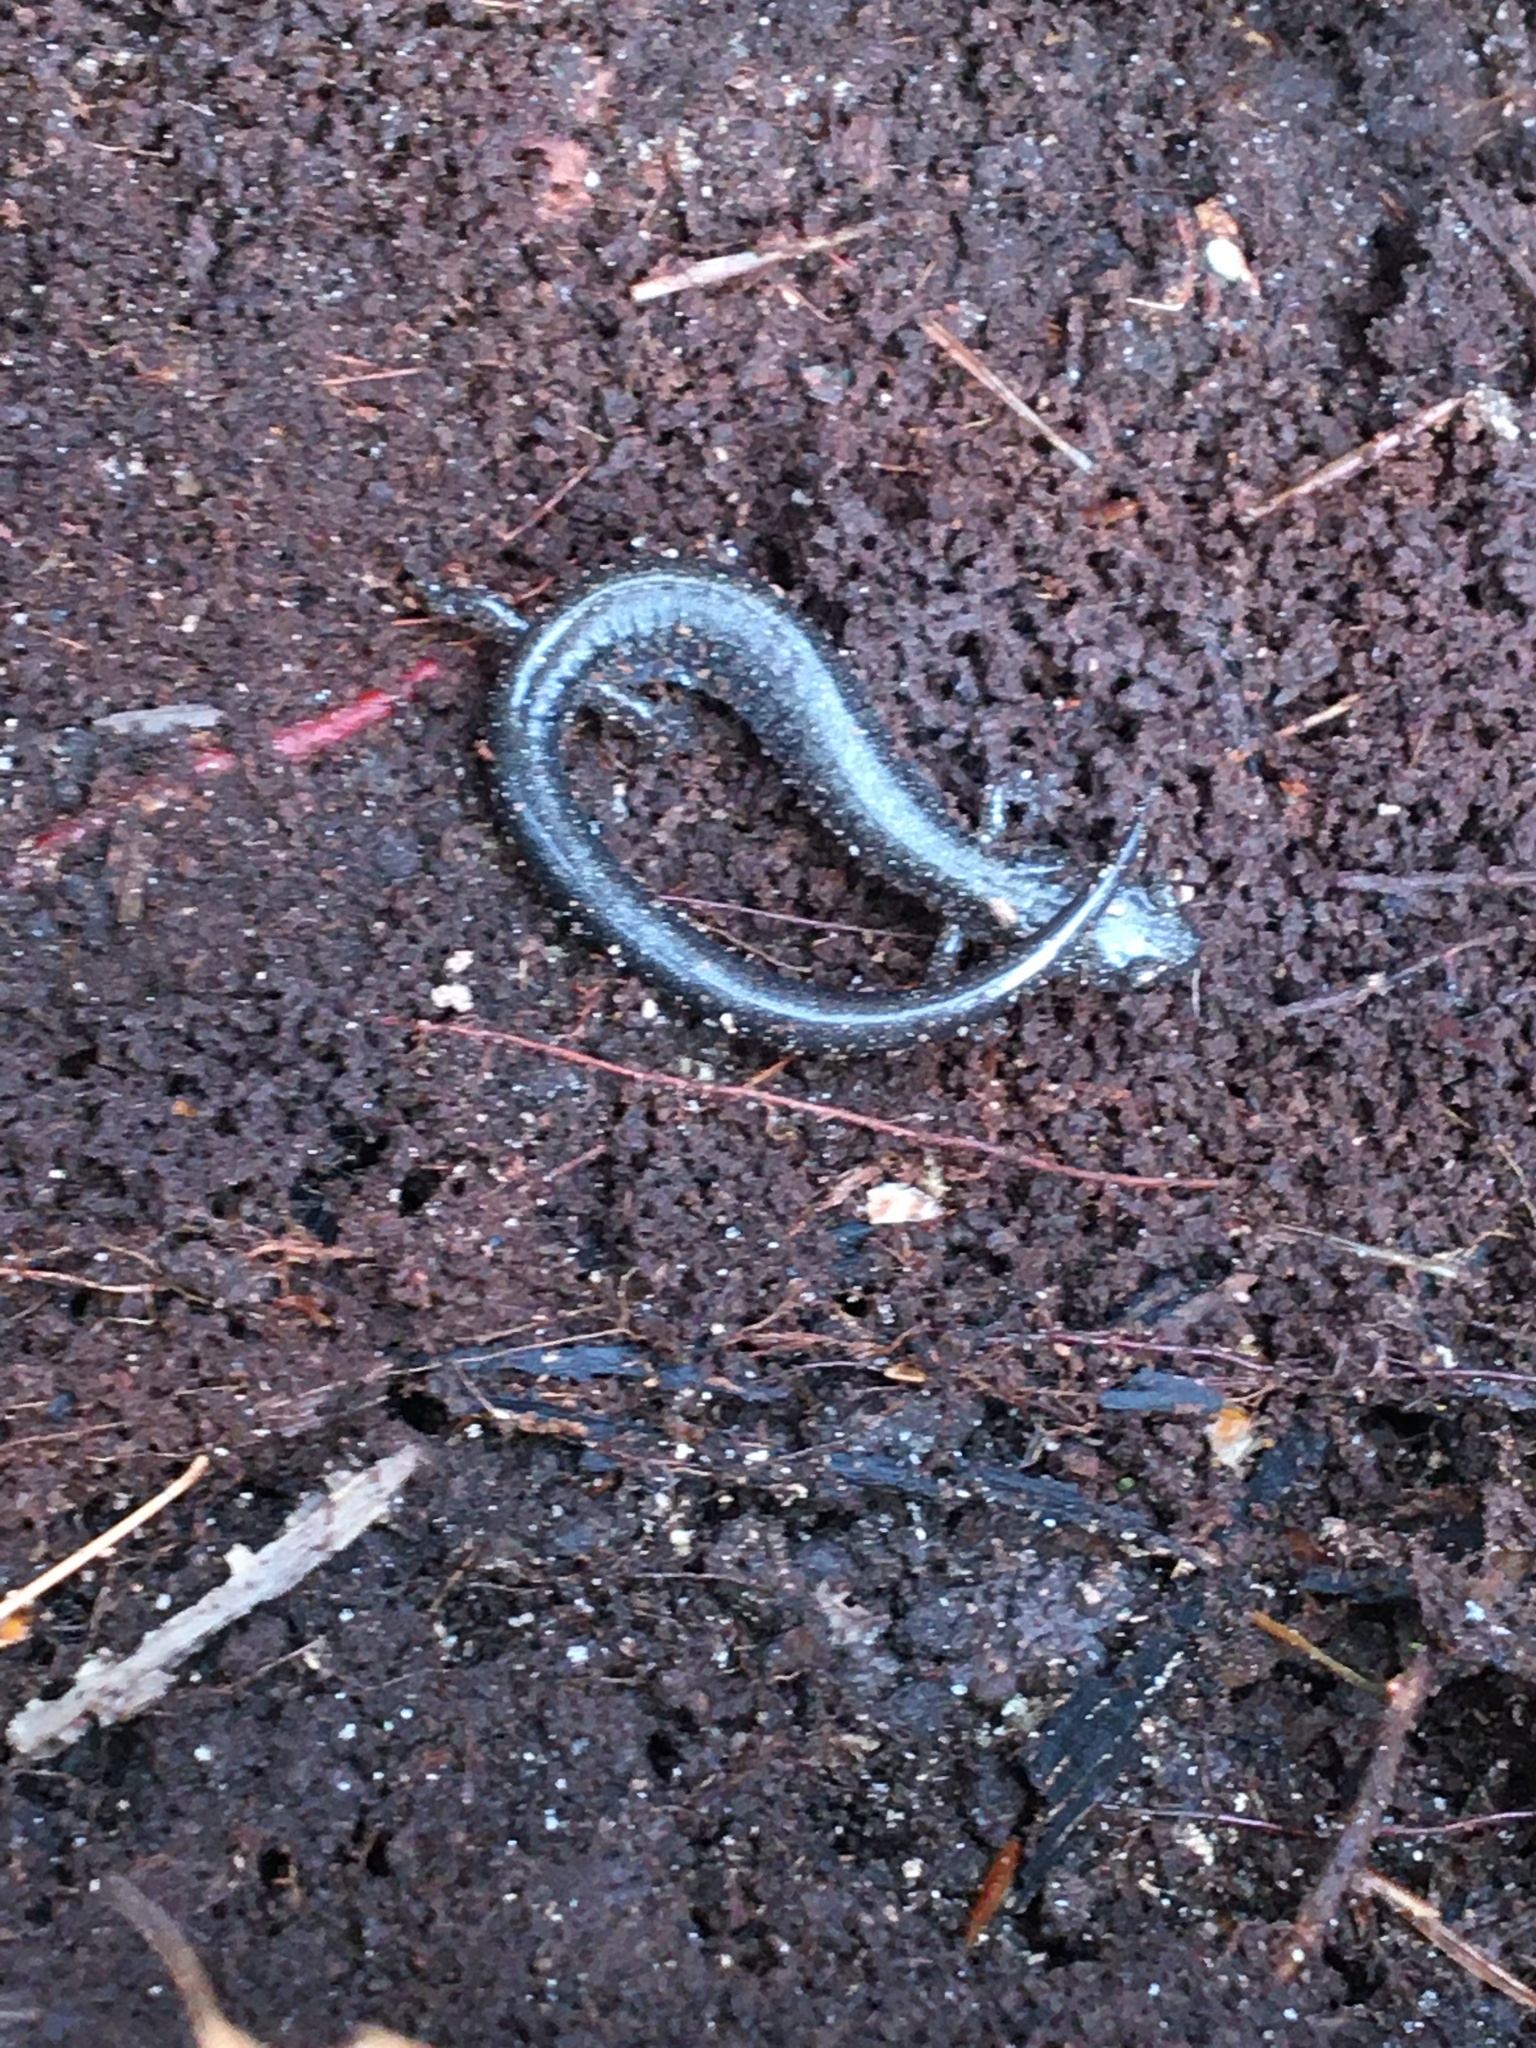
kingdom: Animalia
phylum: Chordata
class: Amphibia
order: Caudata
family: Plethodontidae
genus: Plethodon
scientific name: Plethodon cinereus
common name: Redback salamander
